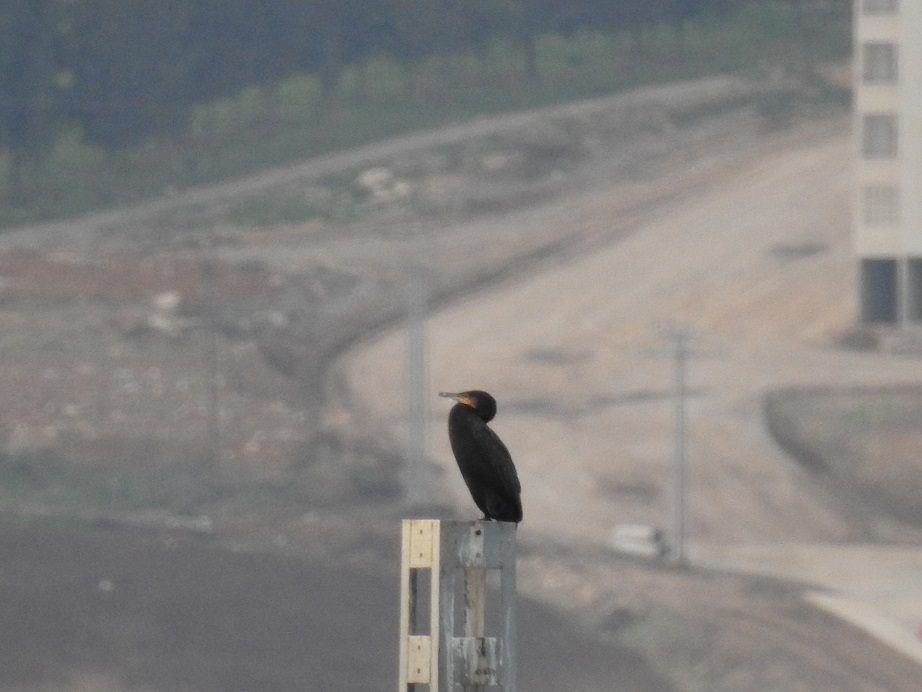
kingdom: Animalia
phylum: Chordata
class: Aves
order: Suliformes
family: Phalacrocoracidae
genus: Phalacrocorax
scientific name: Phalacrocorax carbo
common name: Great cormorant
